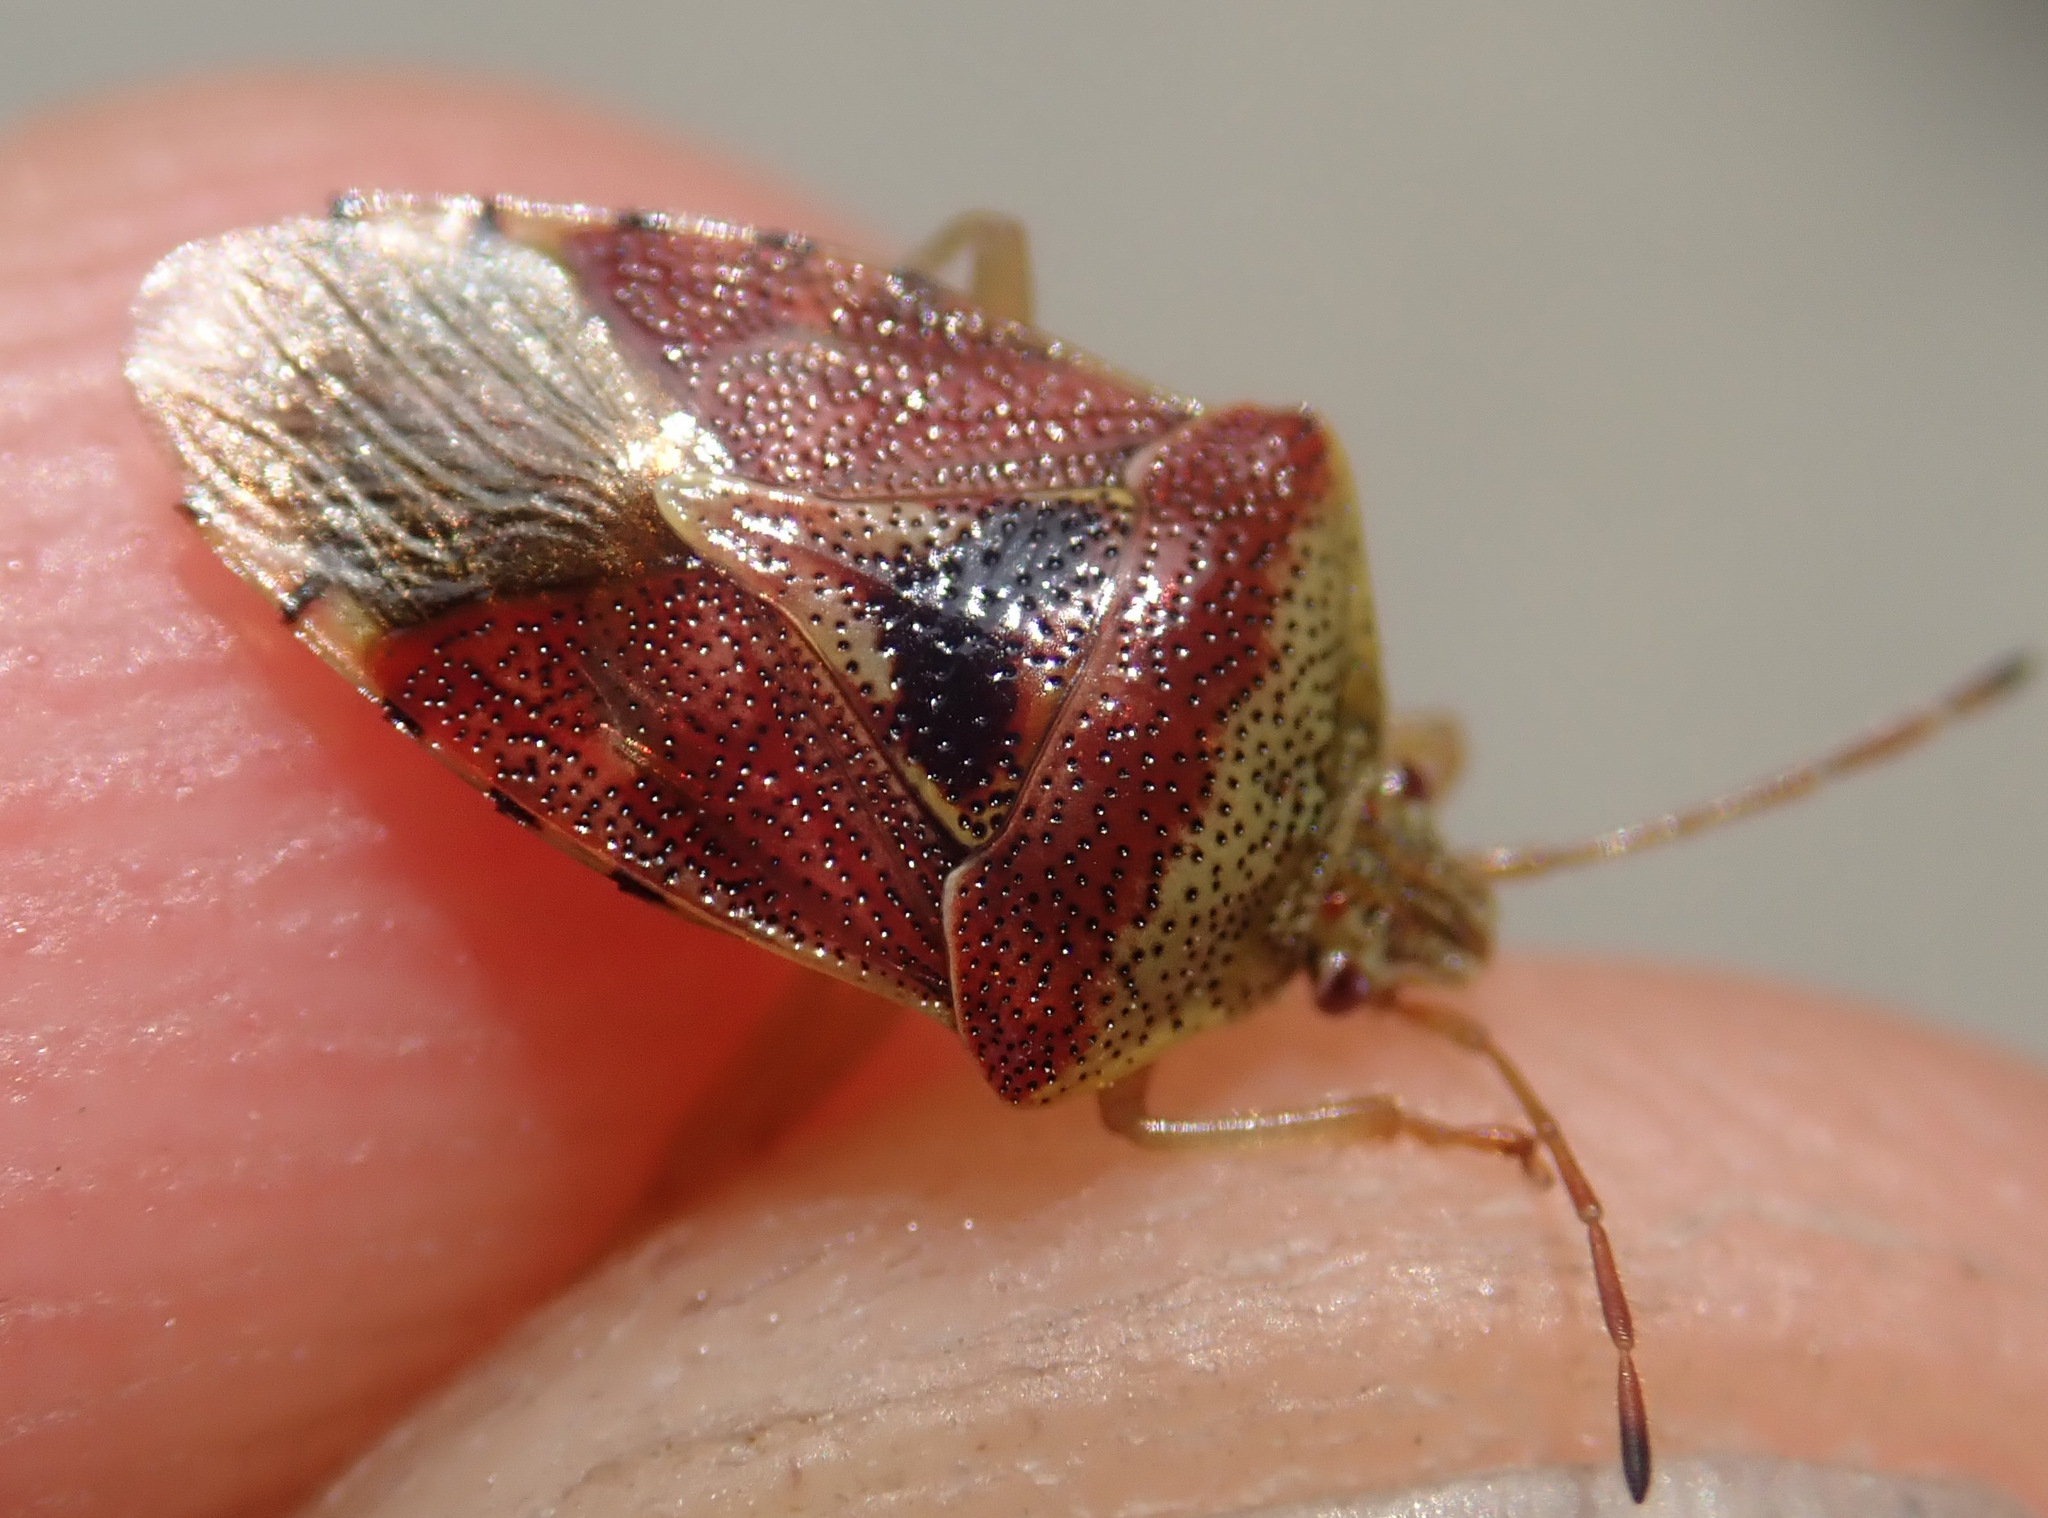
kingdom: Animalia
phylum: Arthropoda
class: Insecta
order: Hemiptera
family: Acanthosomatidae
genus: Elasmucha
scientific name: Elasmucha grisea
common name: Parent bug
